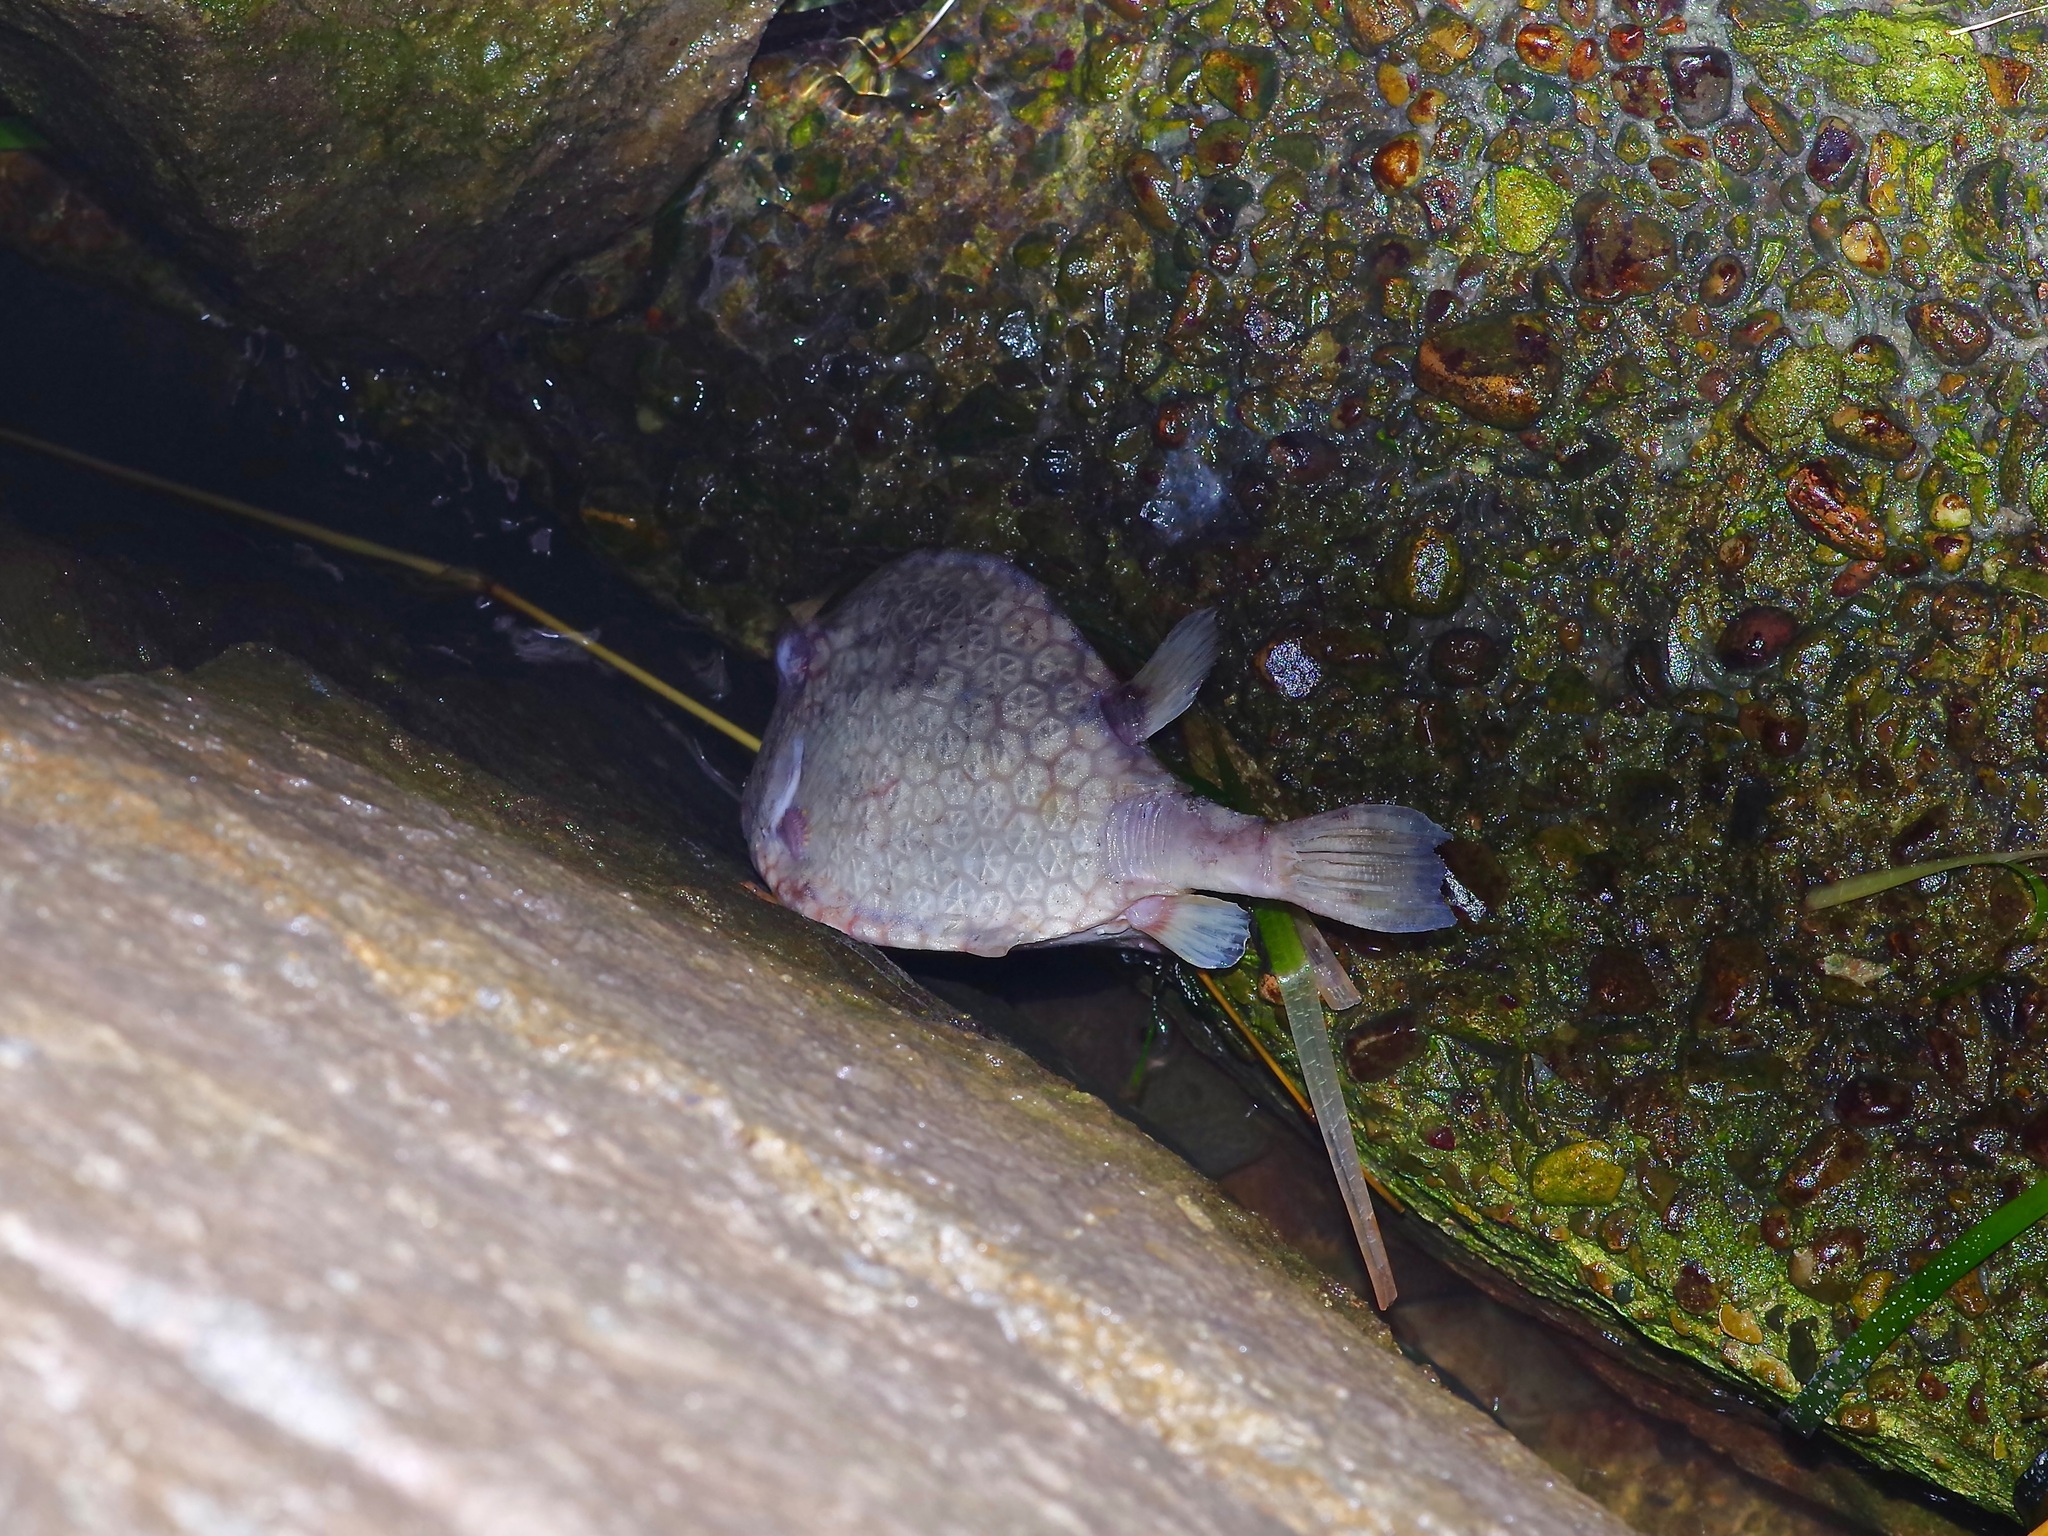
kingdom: Animalia
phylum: Chordata
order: Tetraodontiformes
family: Ostraciidae
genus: Acanthostracion
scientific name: Acanthostracion quadricornis
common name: Scrawled cowfish
